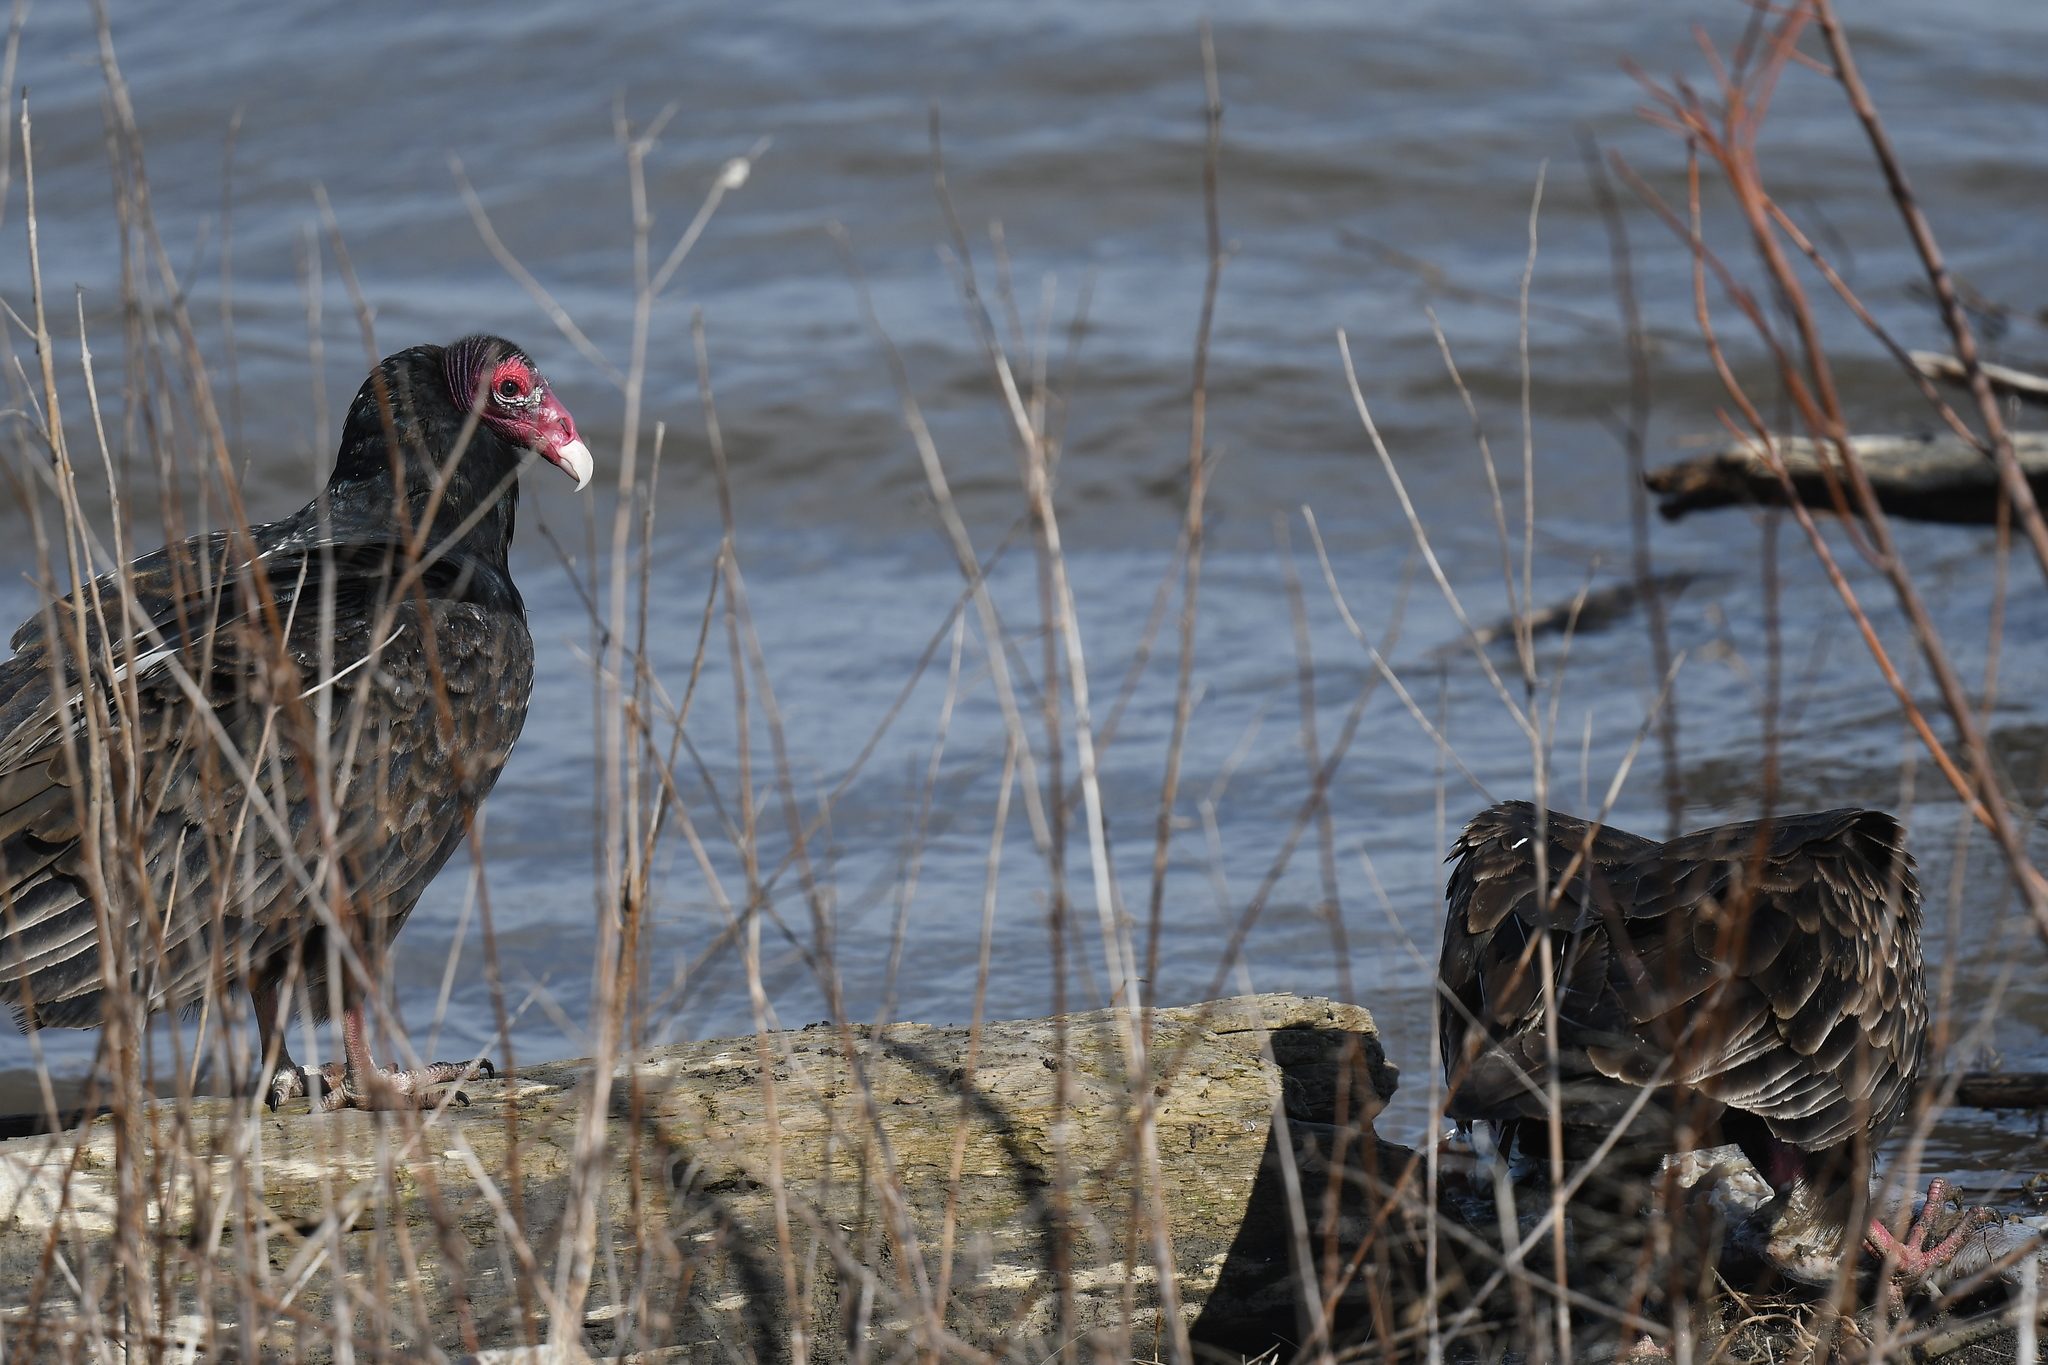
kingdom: Animalia
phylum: Chordata
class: Aves
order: Accipitriformes
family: Cathartidae
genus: Cathartes
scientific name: Cathartes aura
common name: Turkey vulture
